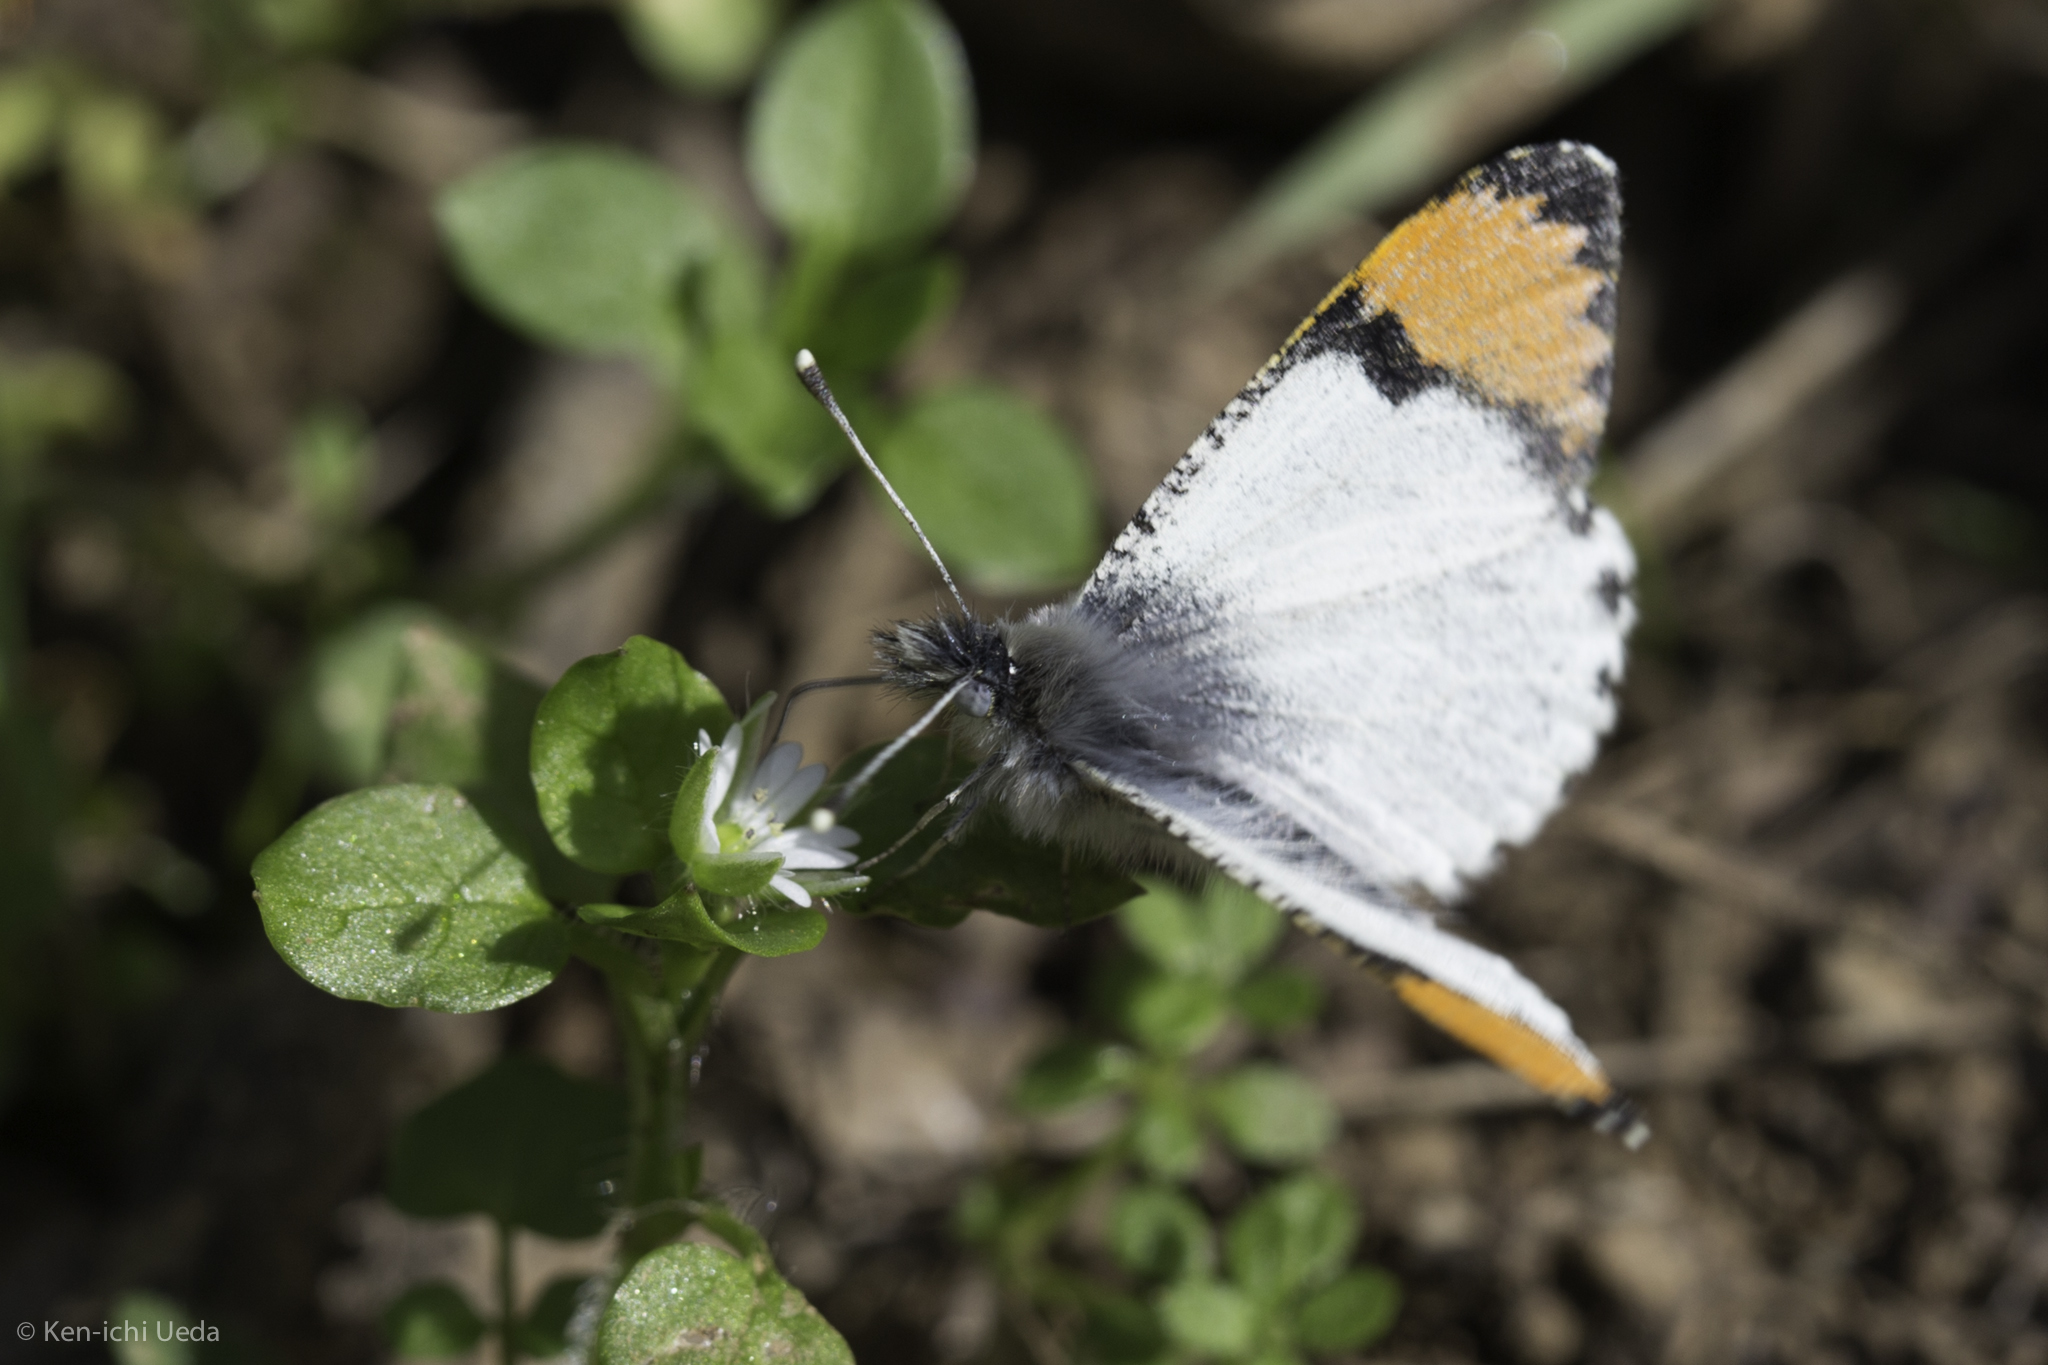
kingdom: Animalia
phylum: Arthropoda
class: Insecta
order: Lepidoptera
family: Pieridae
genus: Anthocharis
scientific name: Anthocharis sara
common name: Sara's orangetip
